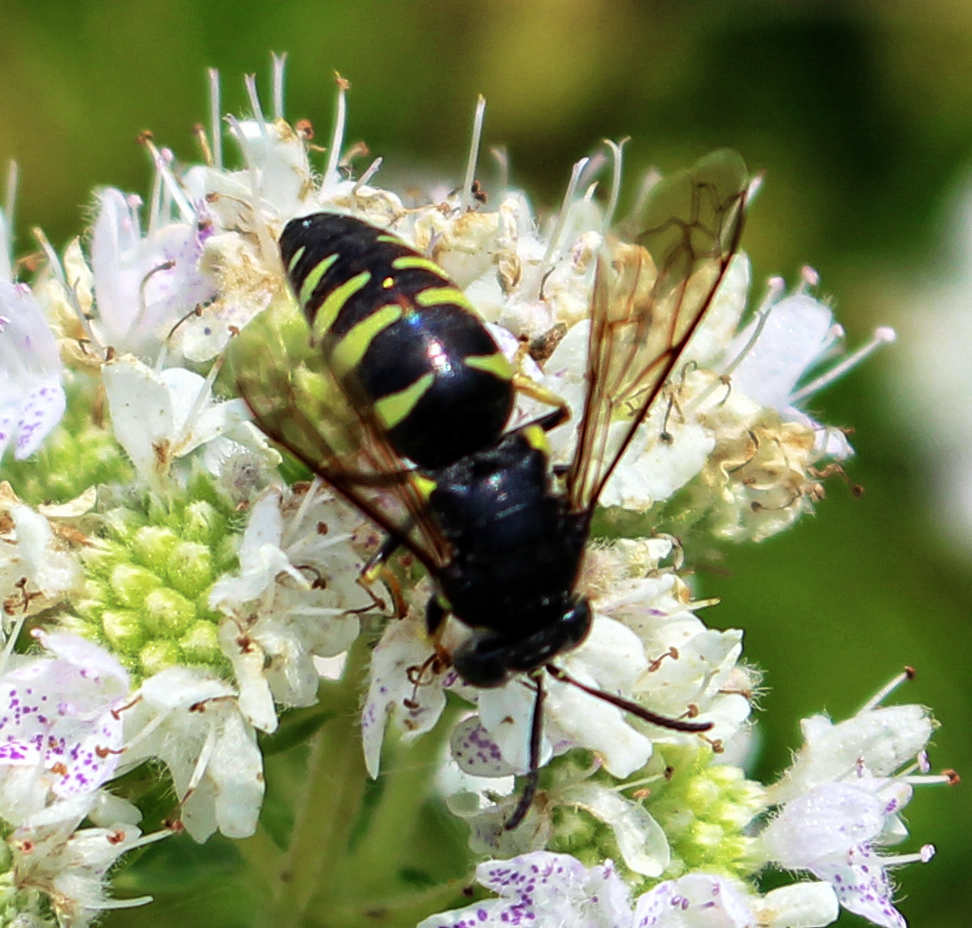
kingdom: Animalia
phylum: Arthropoda
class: Insecta
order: Hymenoptera
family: Crabronidae
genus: Bicyrtes
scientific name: Bicyrtes quadrifasciatus
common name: Four-banded stink bug hunter wasp
